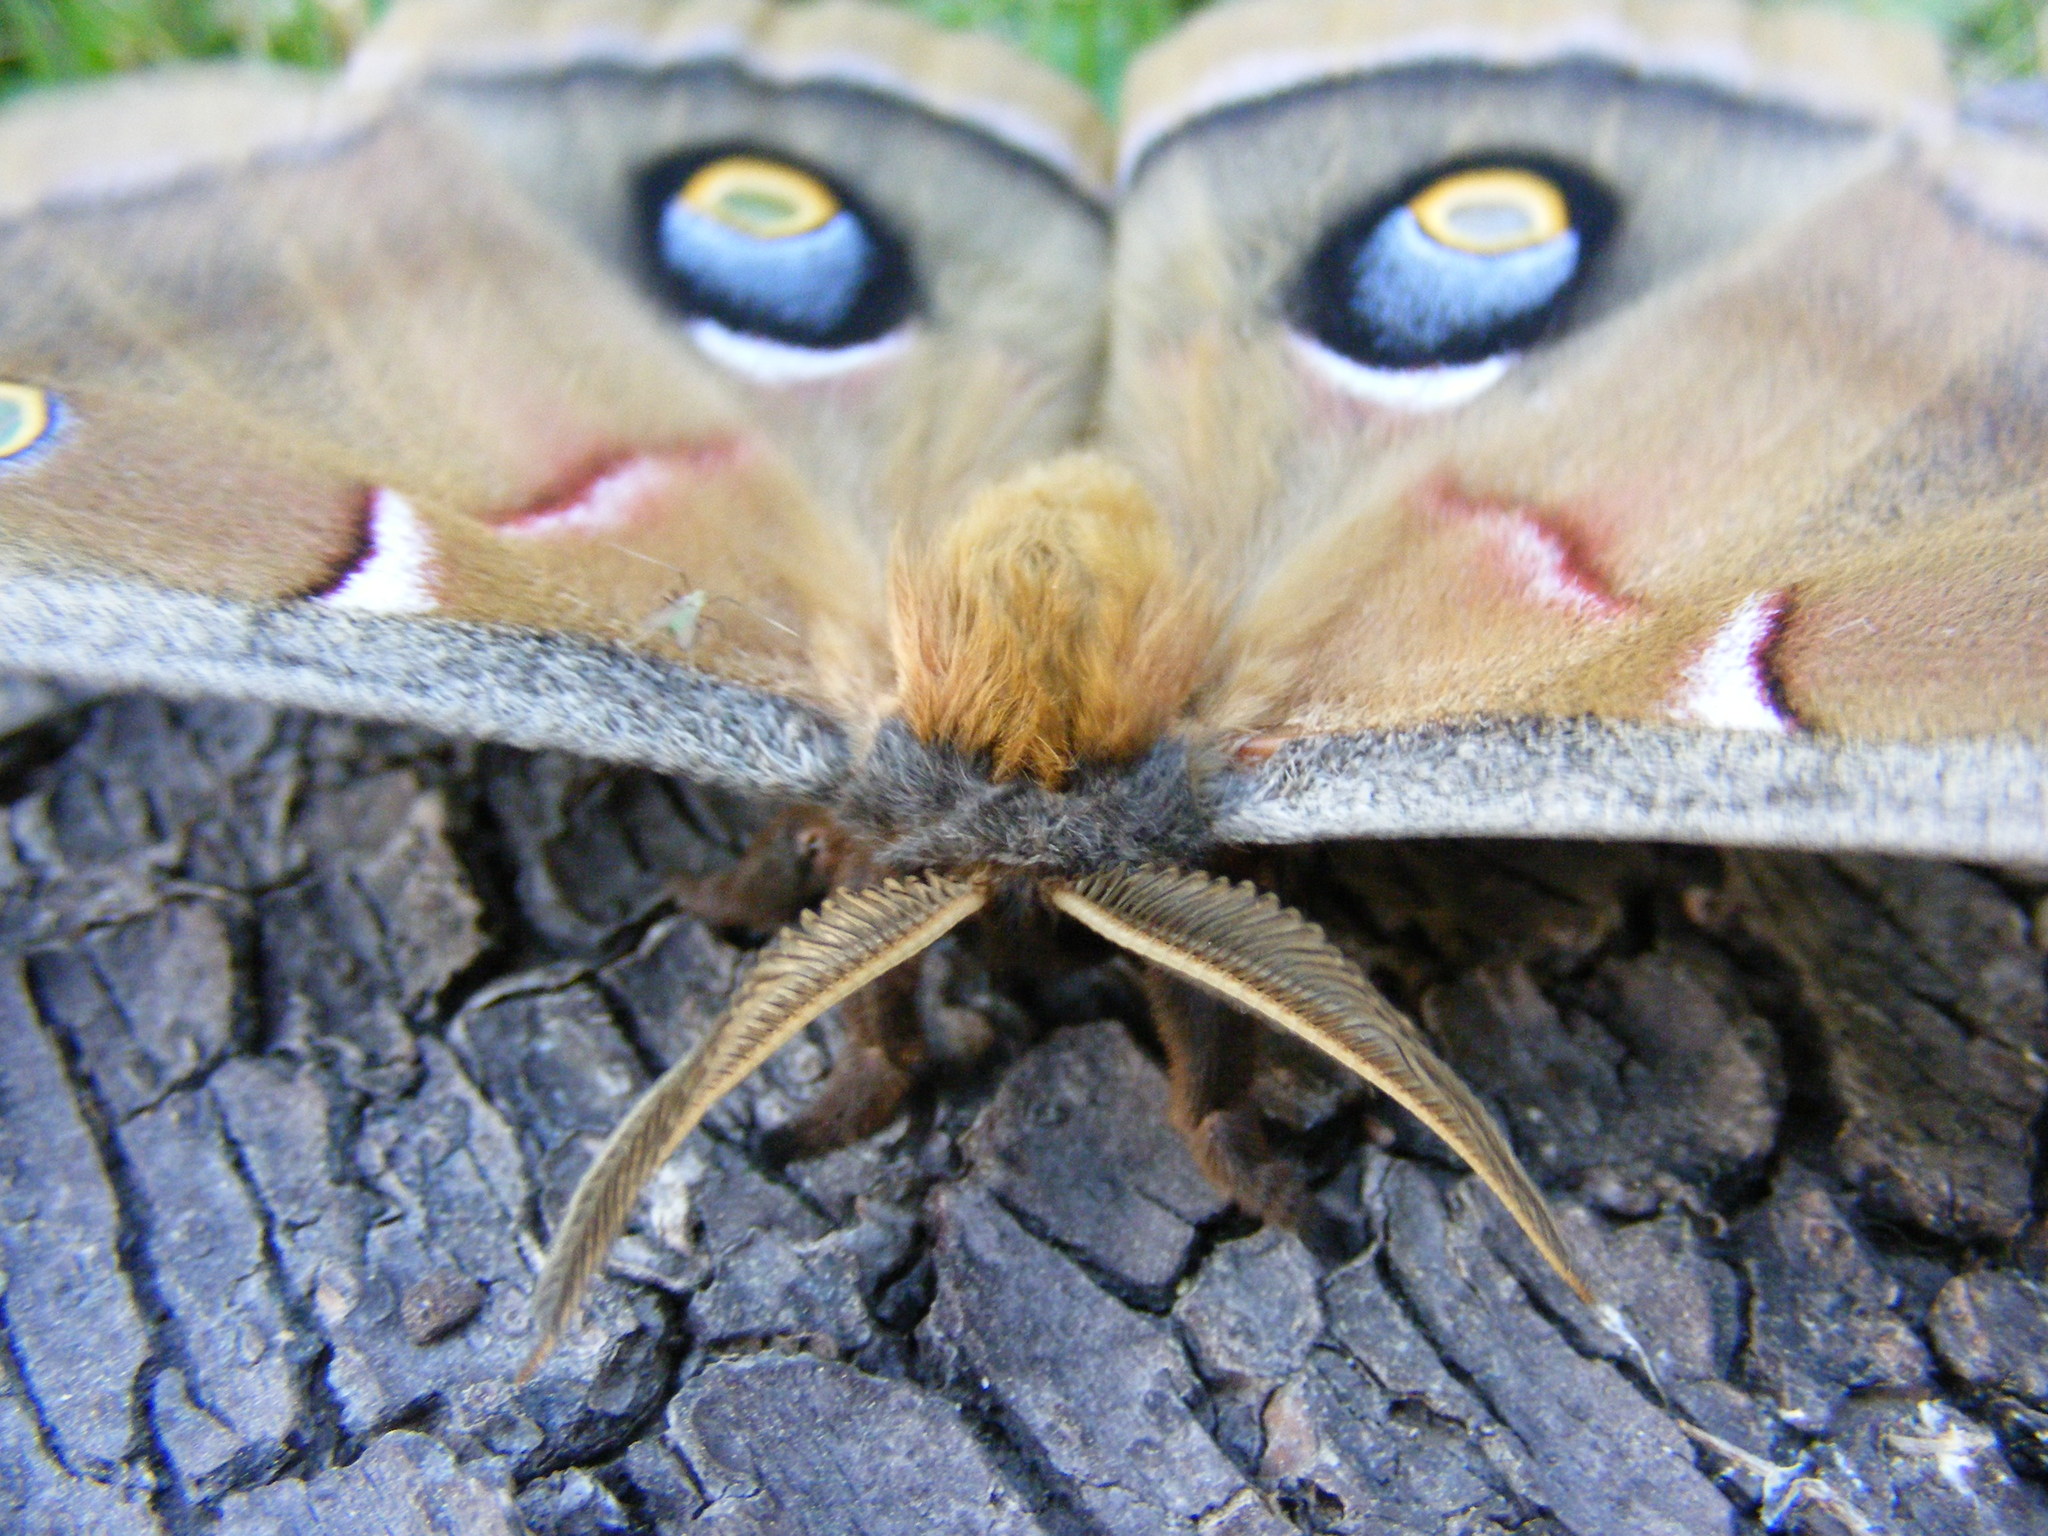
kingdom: Animalia
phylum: Arthropoda
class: Insecta
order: Lepidoptera
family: Saturniidae
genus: Antheraea
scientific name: Antheraea polyphemus
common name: Polyphemus moth
